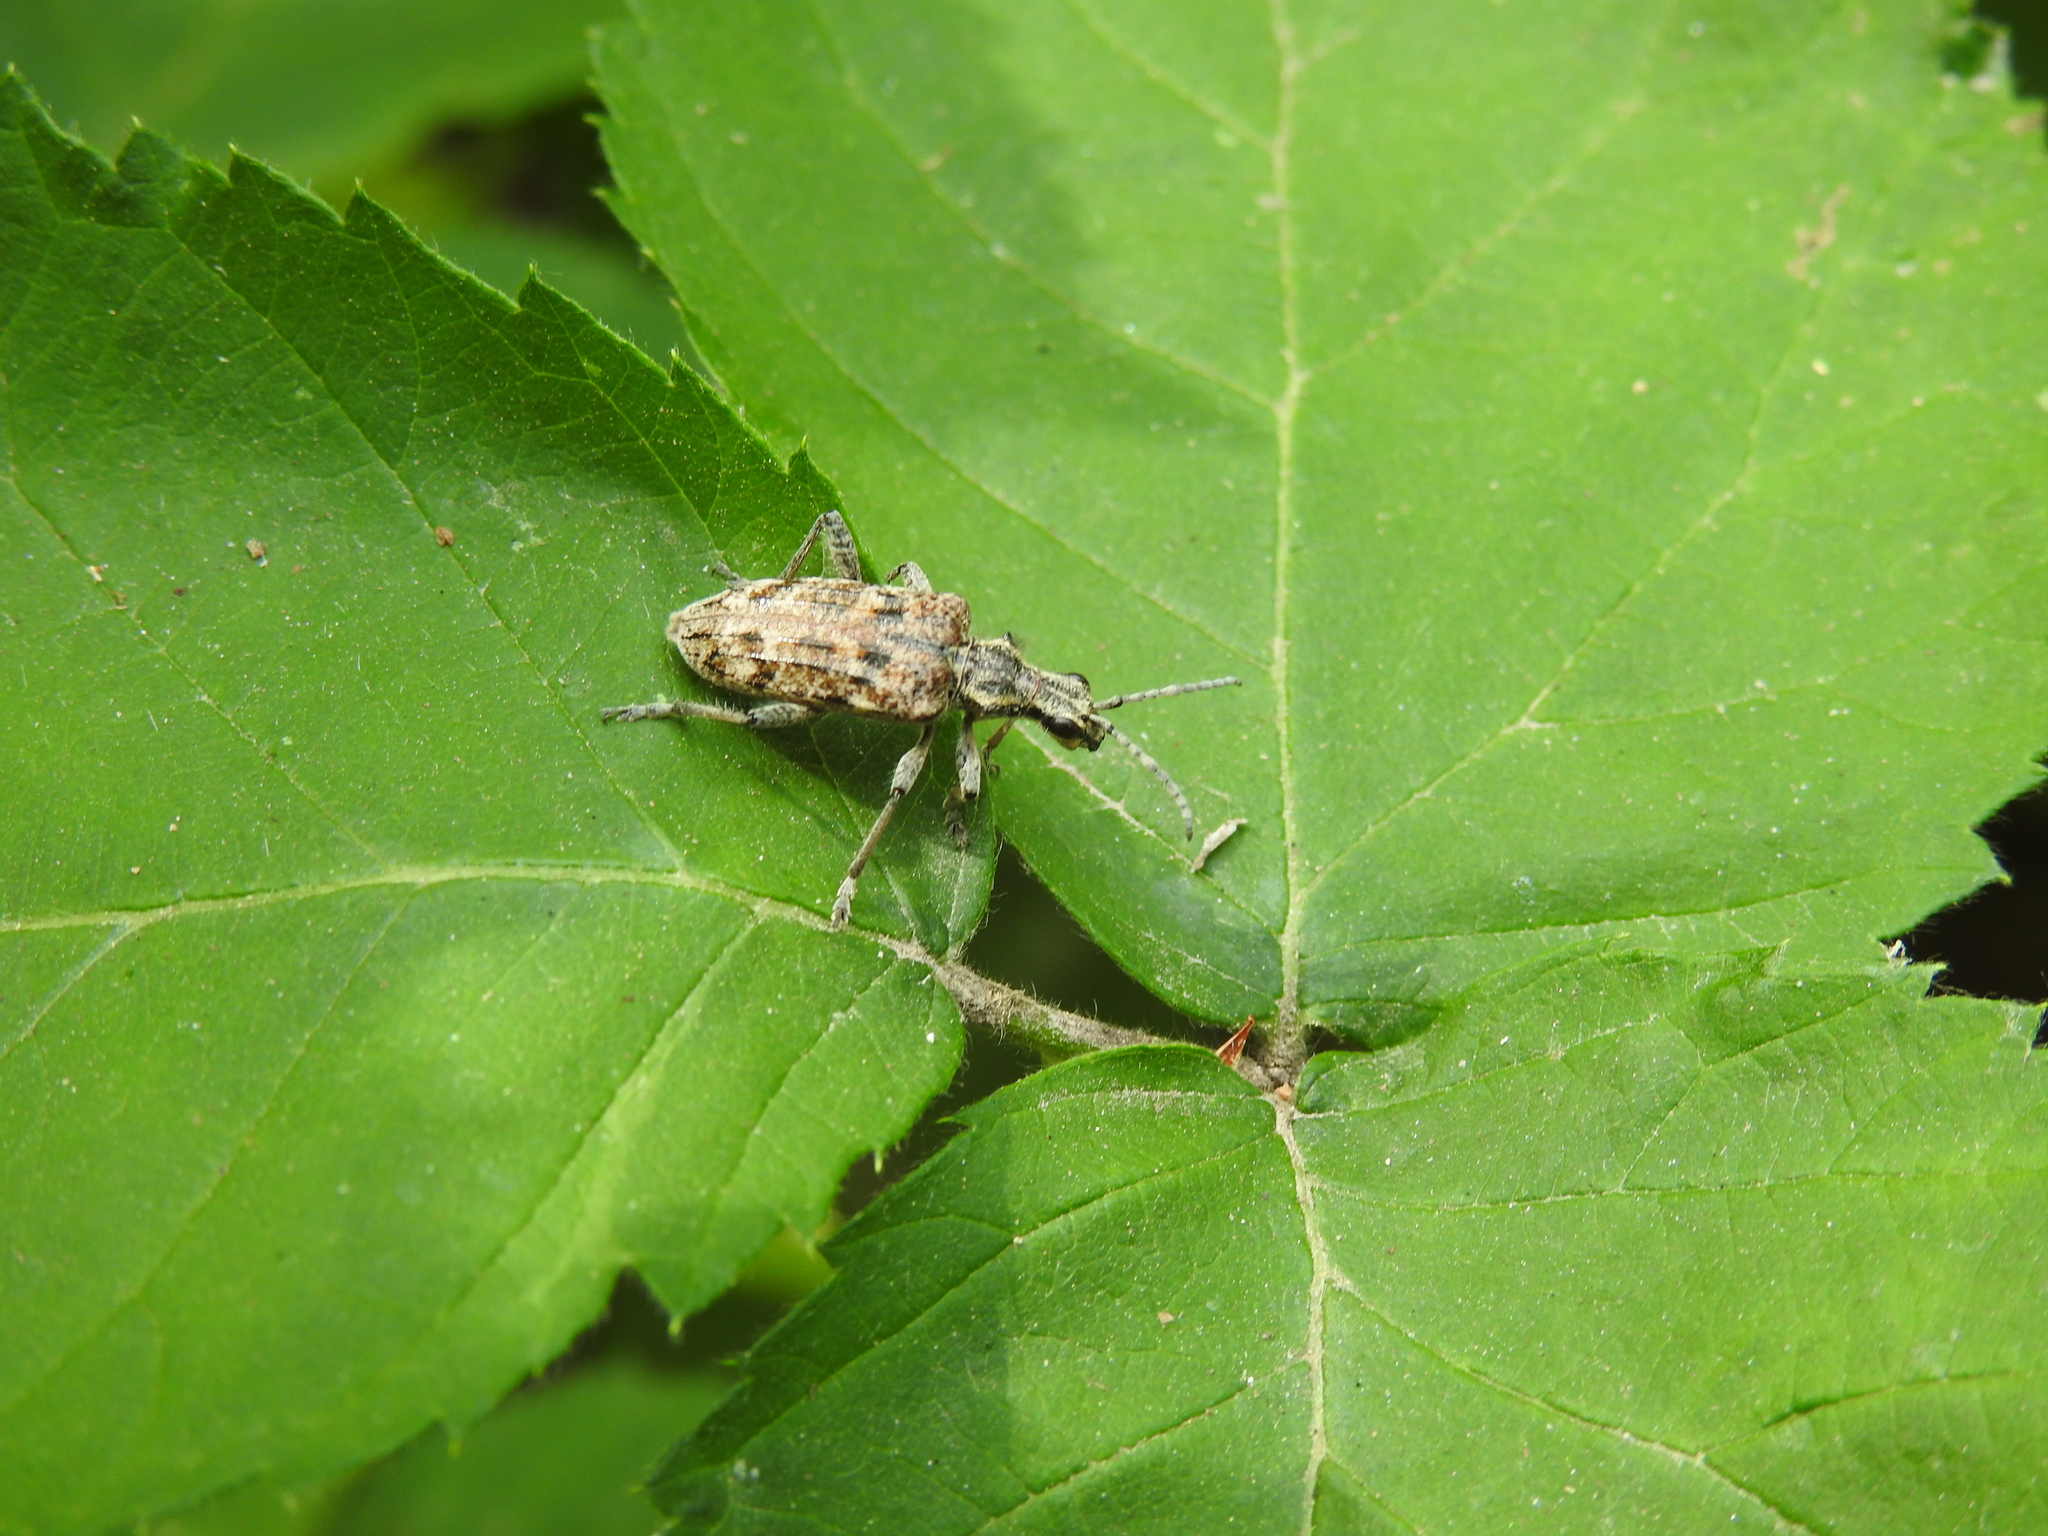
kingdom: Animalia
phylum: Arthropoda
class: Insecta
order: Coleoptera
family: Cerambycidae
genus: Rhagium
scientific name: Rhagium inquisitor
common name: Ribbed pine borer
